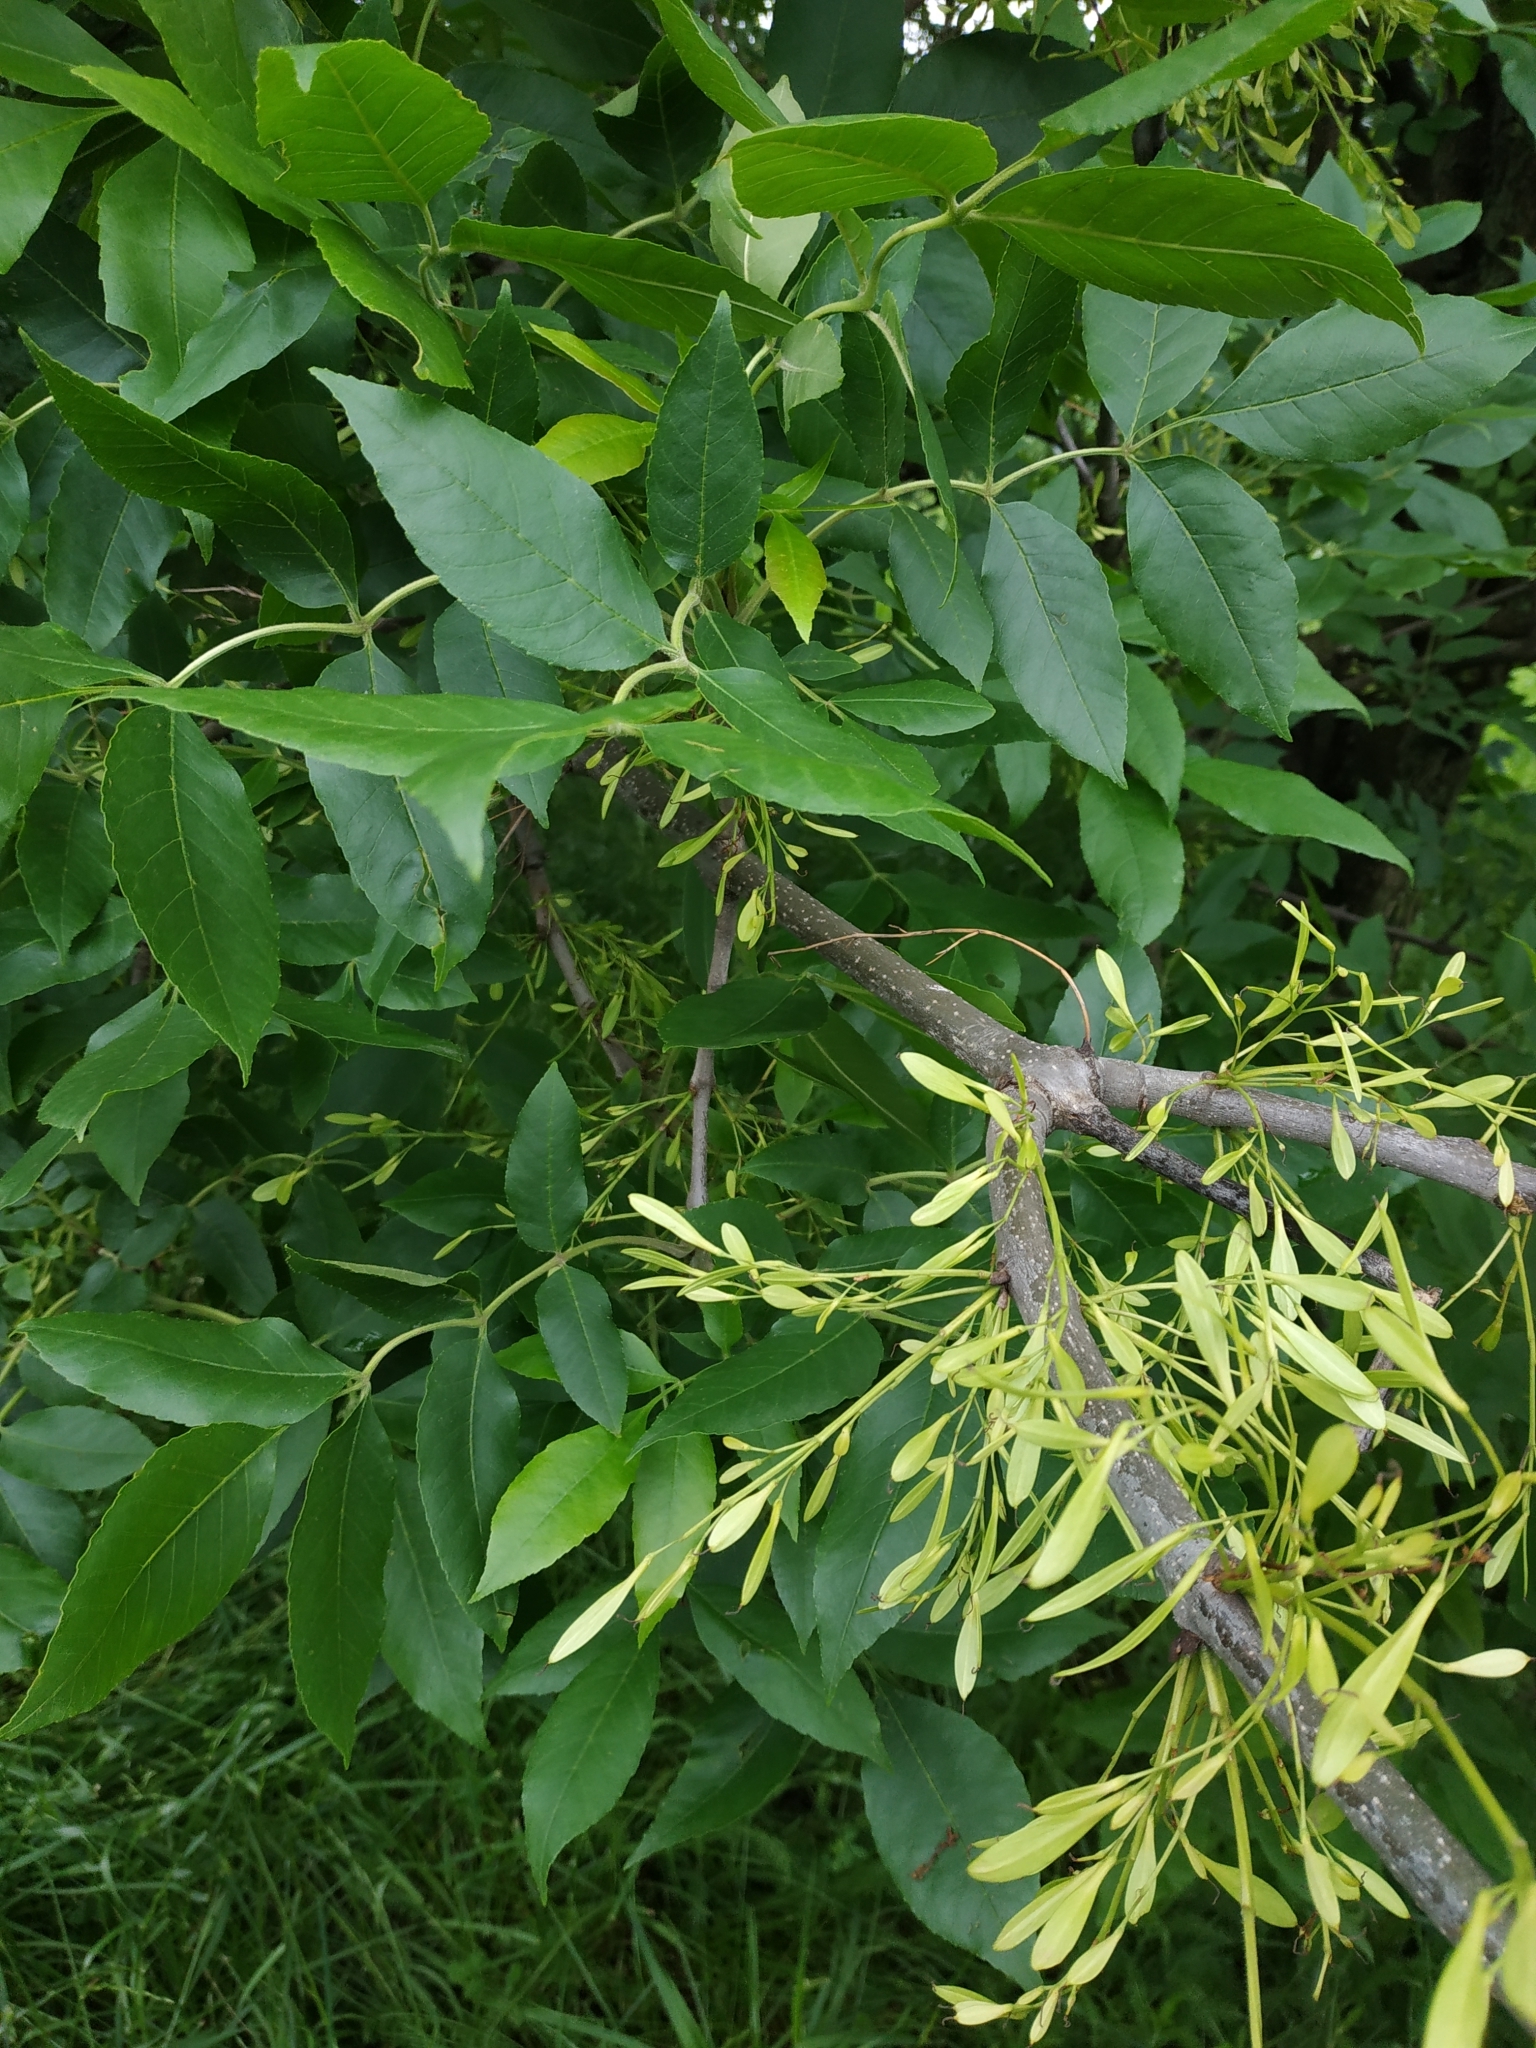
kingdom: Plantae
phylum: Tracheophyta
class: Magnoliopsida
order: Lamiales
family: Oleaceae
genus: Fraxinus
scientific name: Fraxinus pennsylvanica
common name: Green ash
